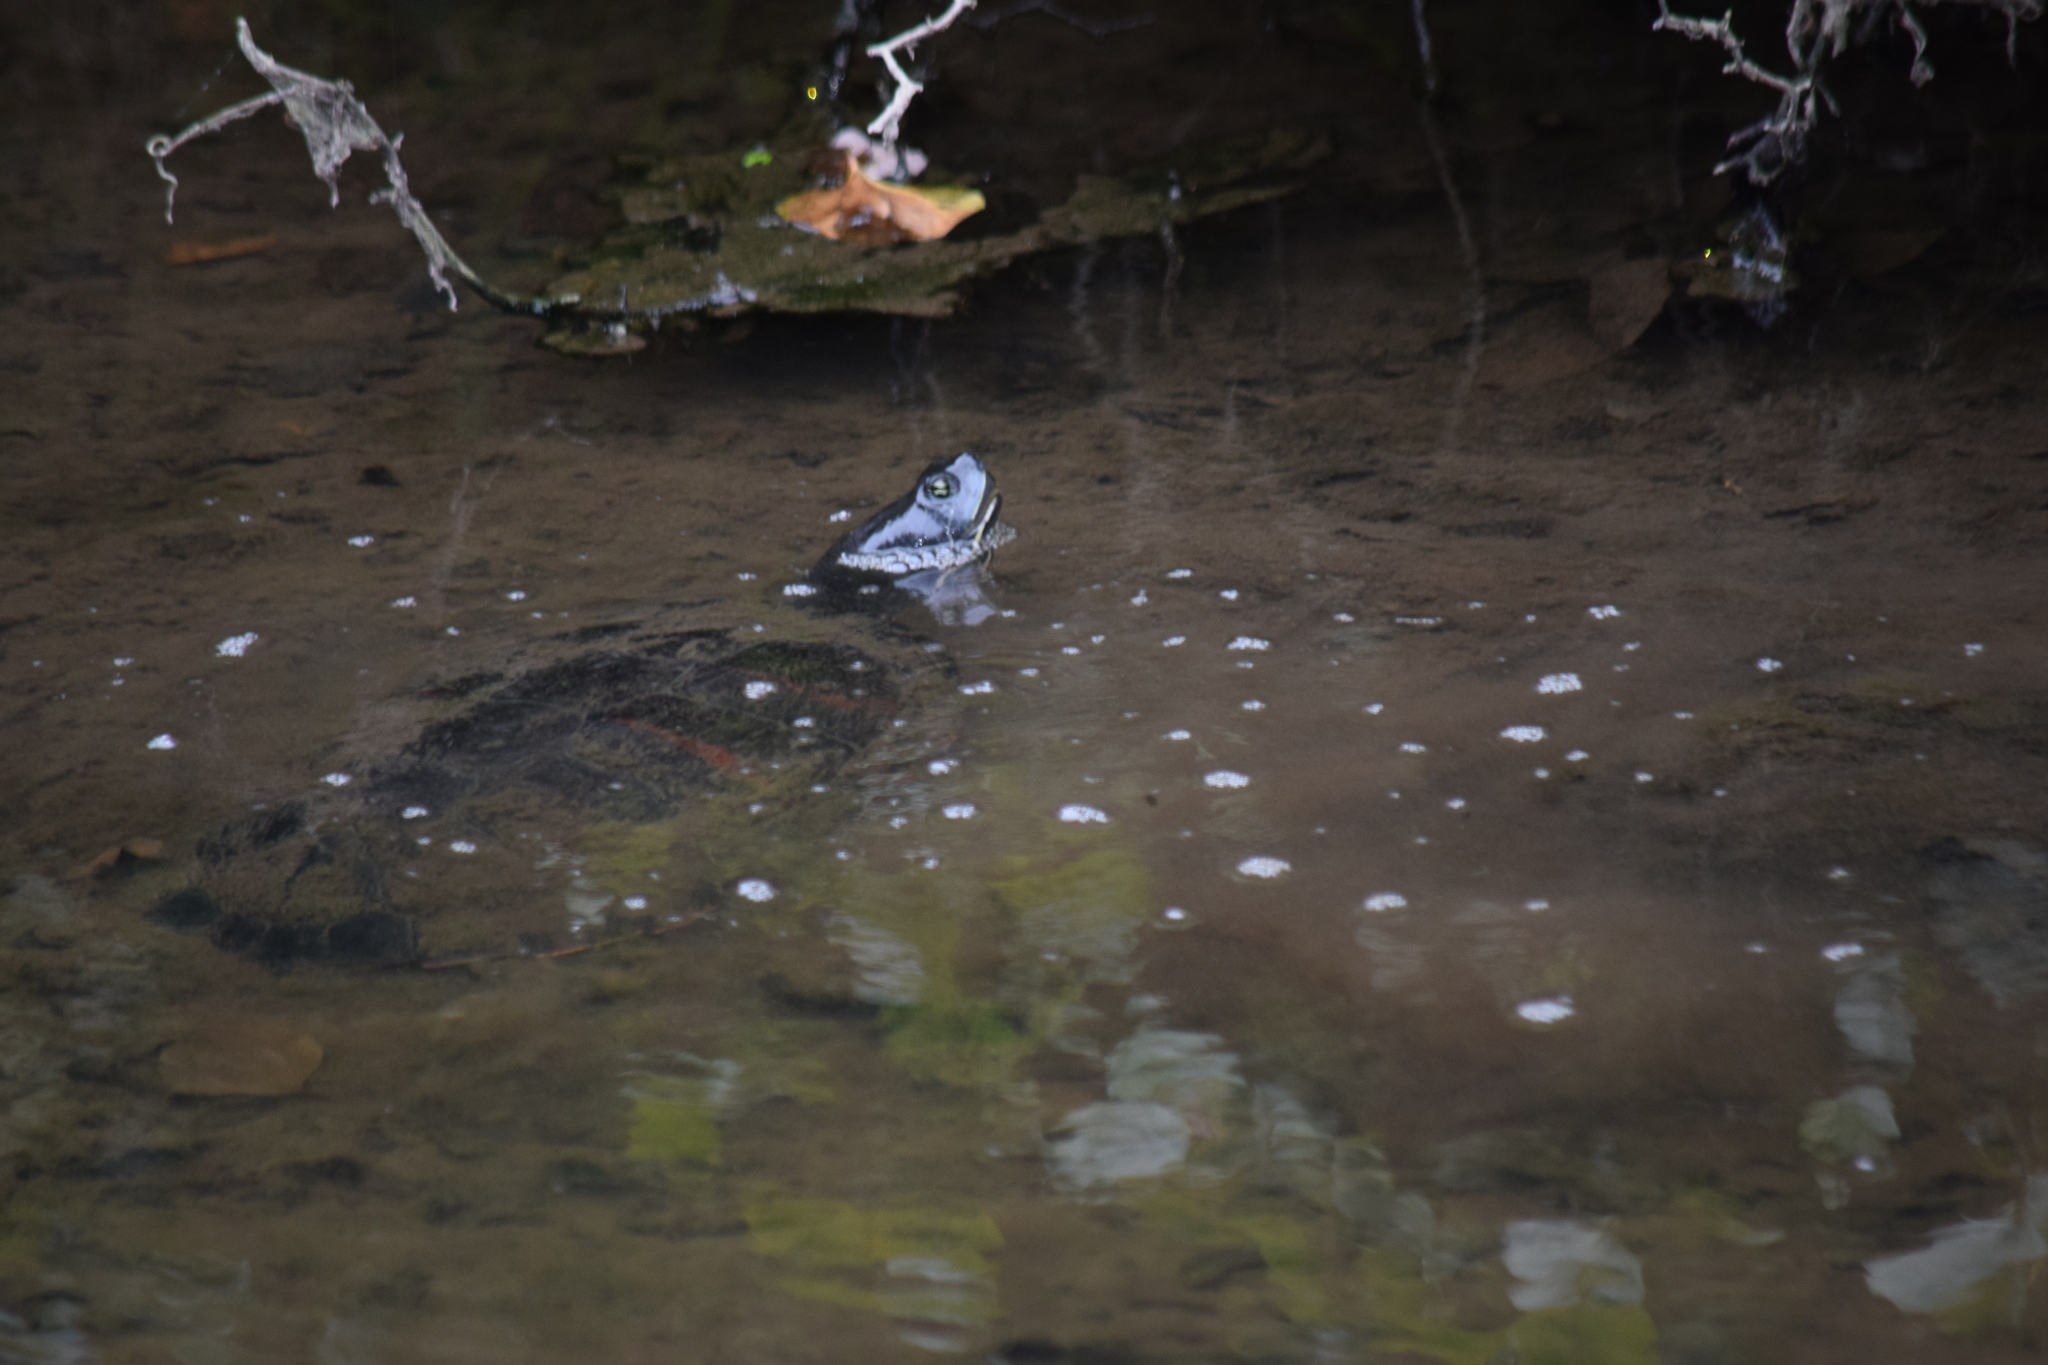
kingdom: Animalia
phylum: Chordata
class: Testudines
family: Emydidae
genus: Pseudemys
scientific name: Pseudemys rubriventris
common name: American red-bellied turtle
